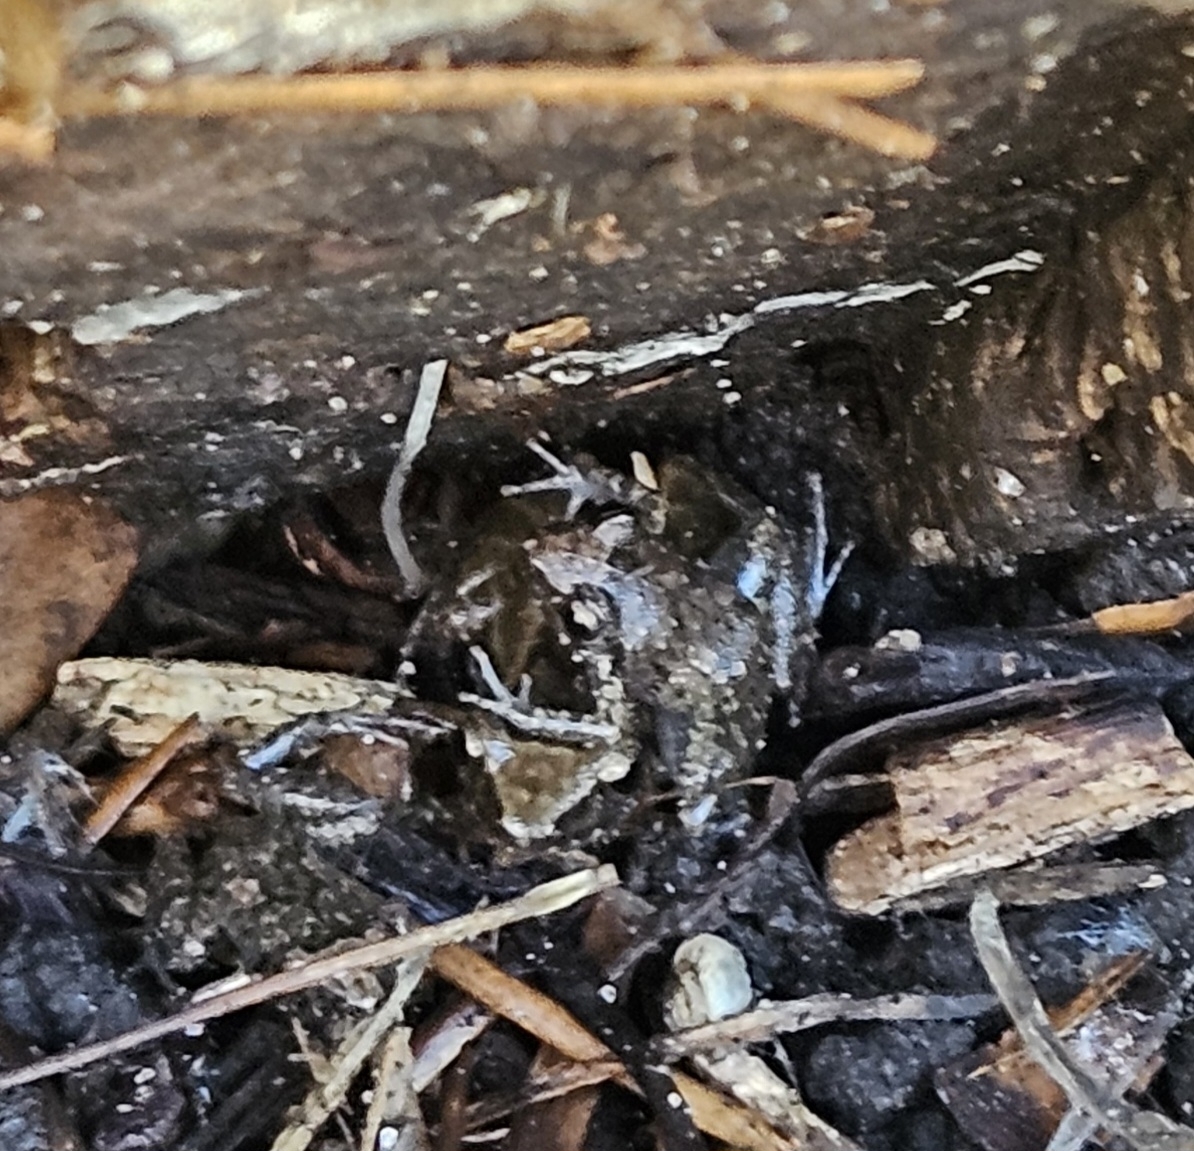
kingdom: Animalia
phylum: Chordata
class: Amphibia
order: Anura
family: Eleutherodactylidae
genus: Eleutherodactylus
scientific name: Eleutherodactylus planirostris
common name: Greenhouse frog
